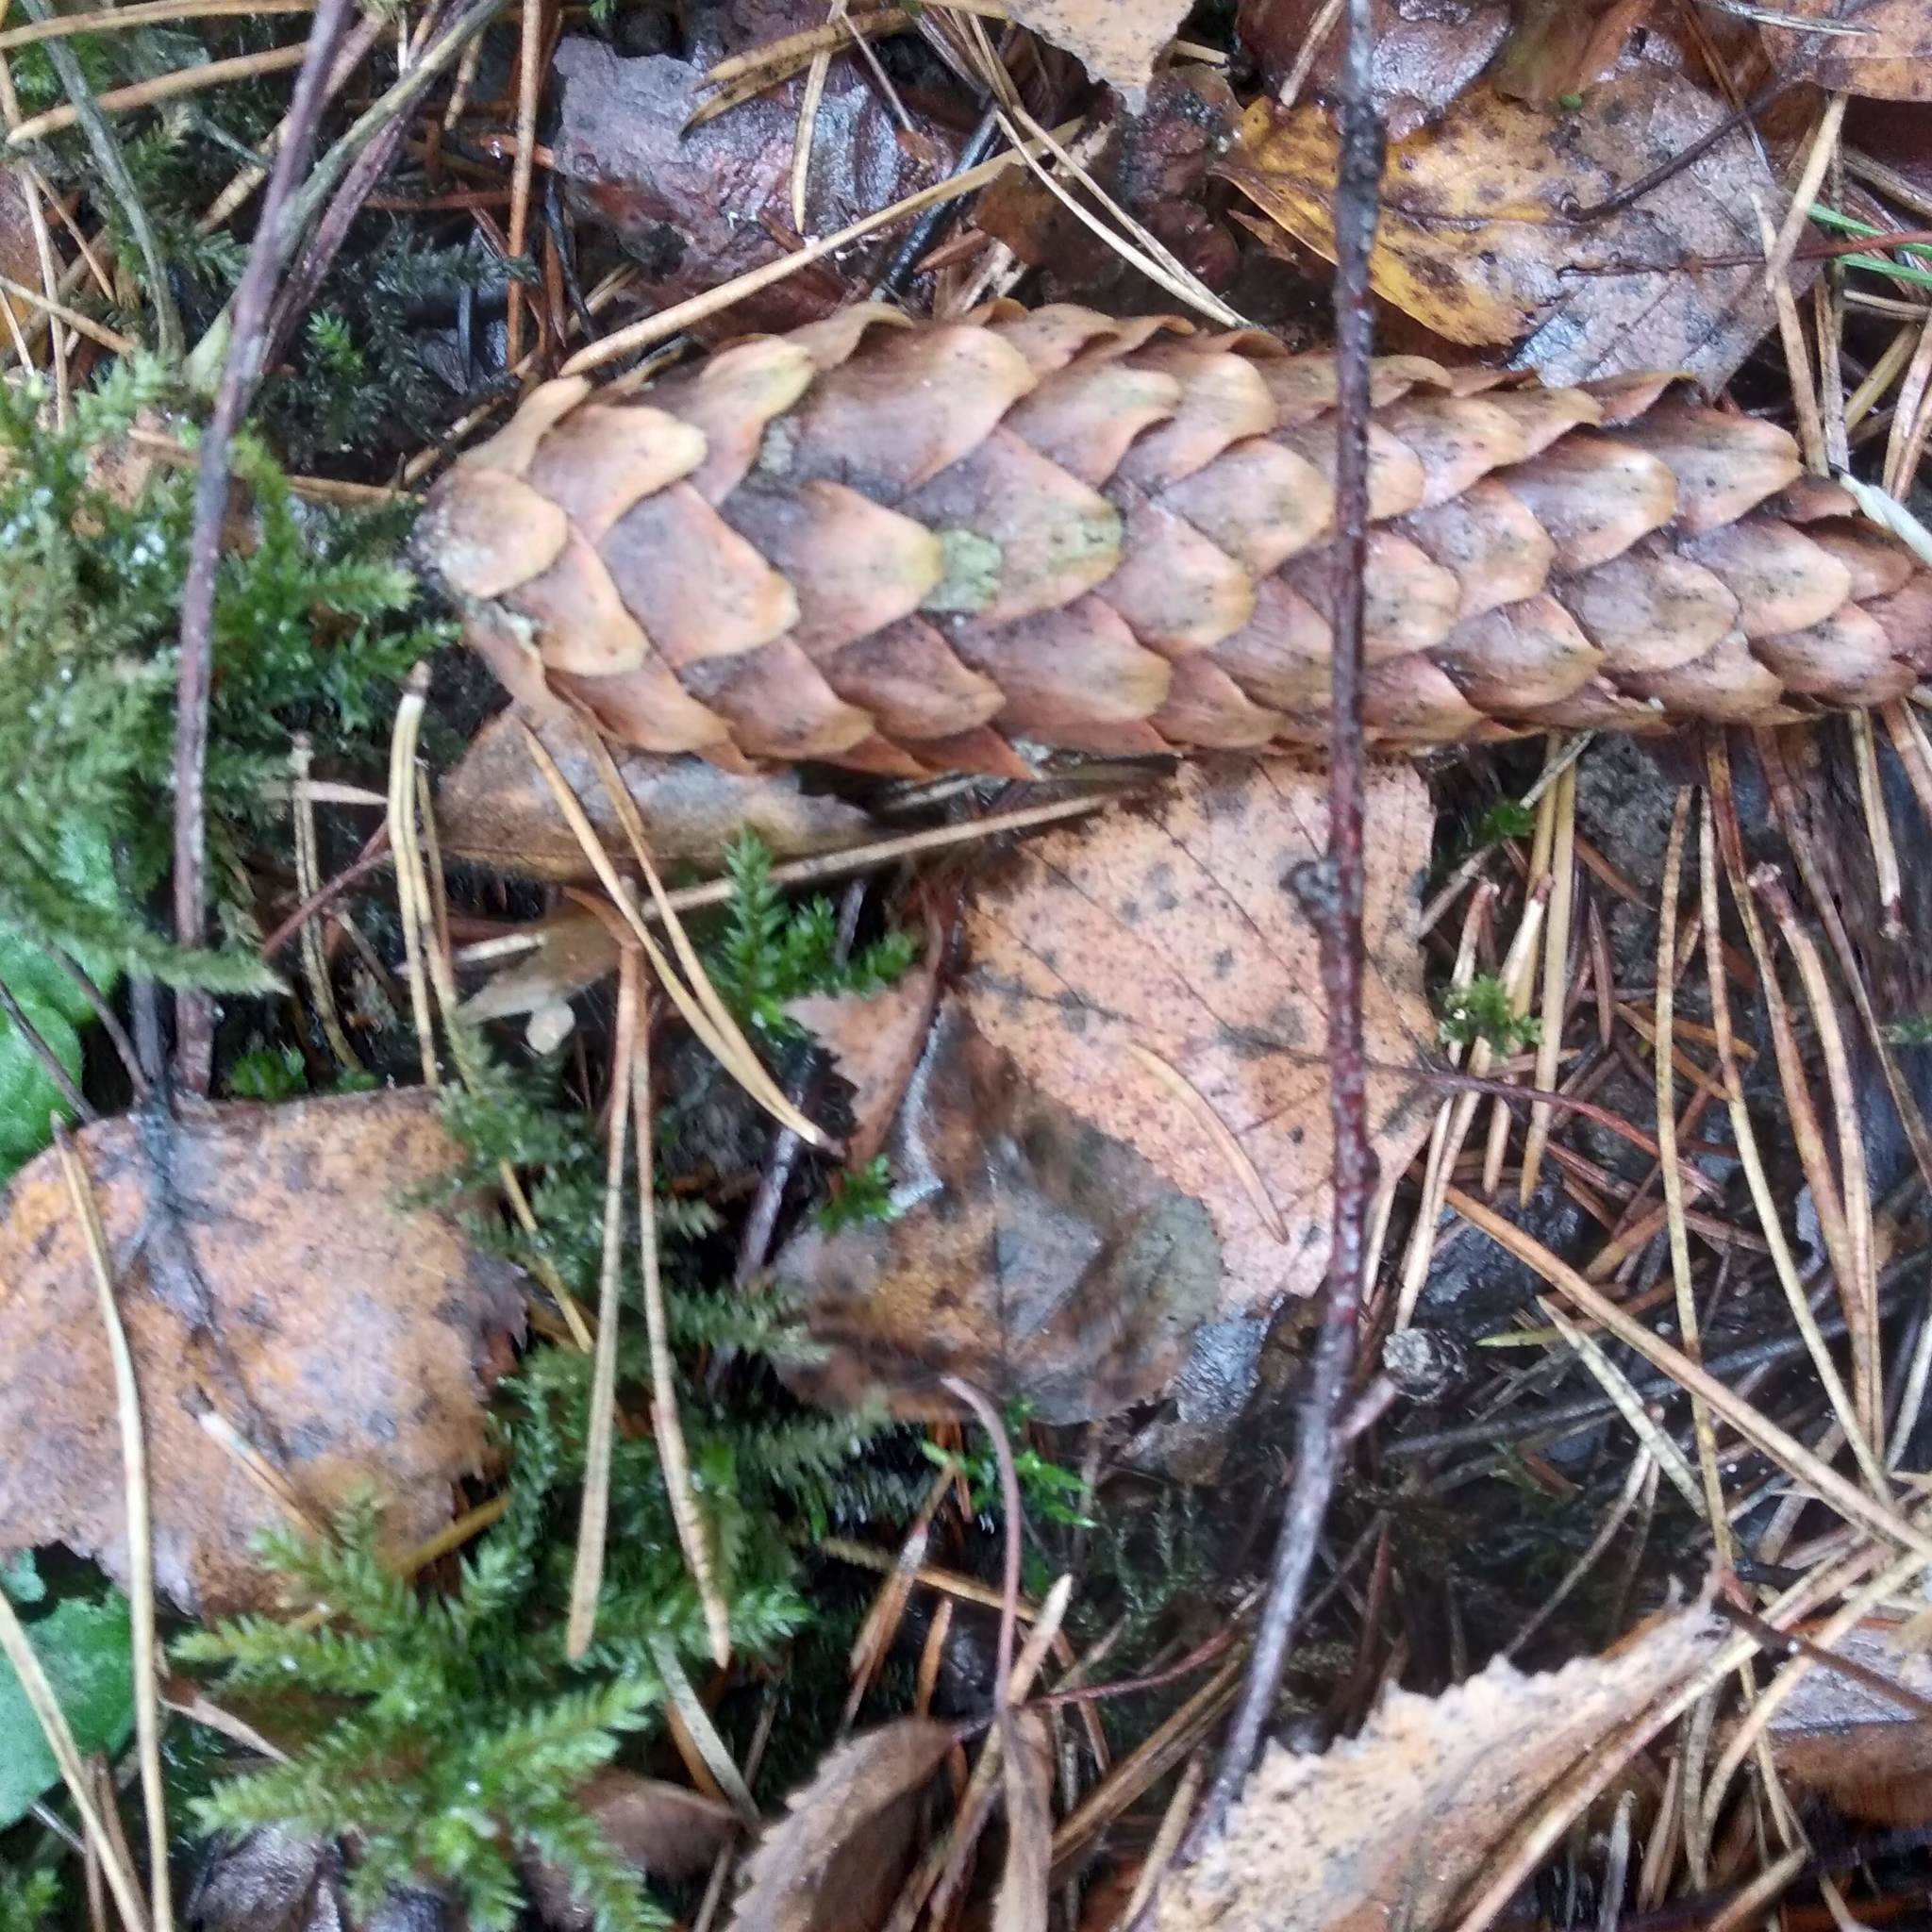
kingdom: Plantae
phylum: Tracheophyta
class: Pinopsida
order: Pinales
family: Pinaceae
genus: Picea
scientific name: Picea abies
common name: Norway spruce
